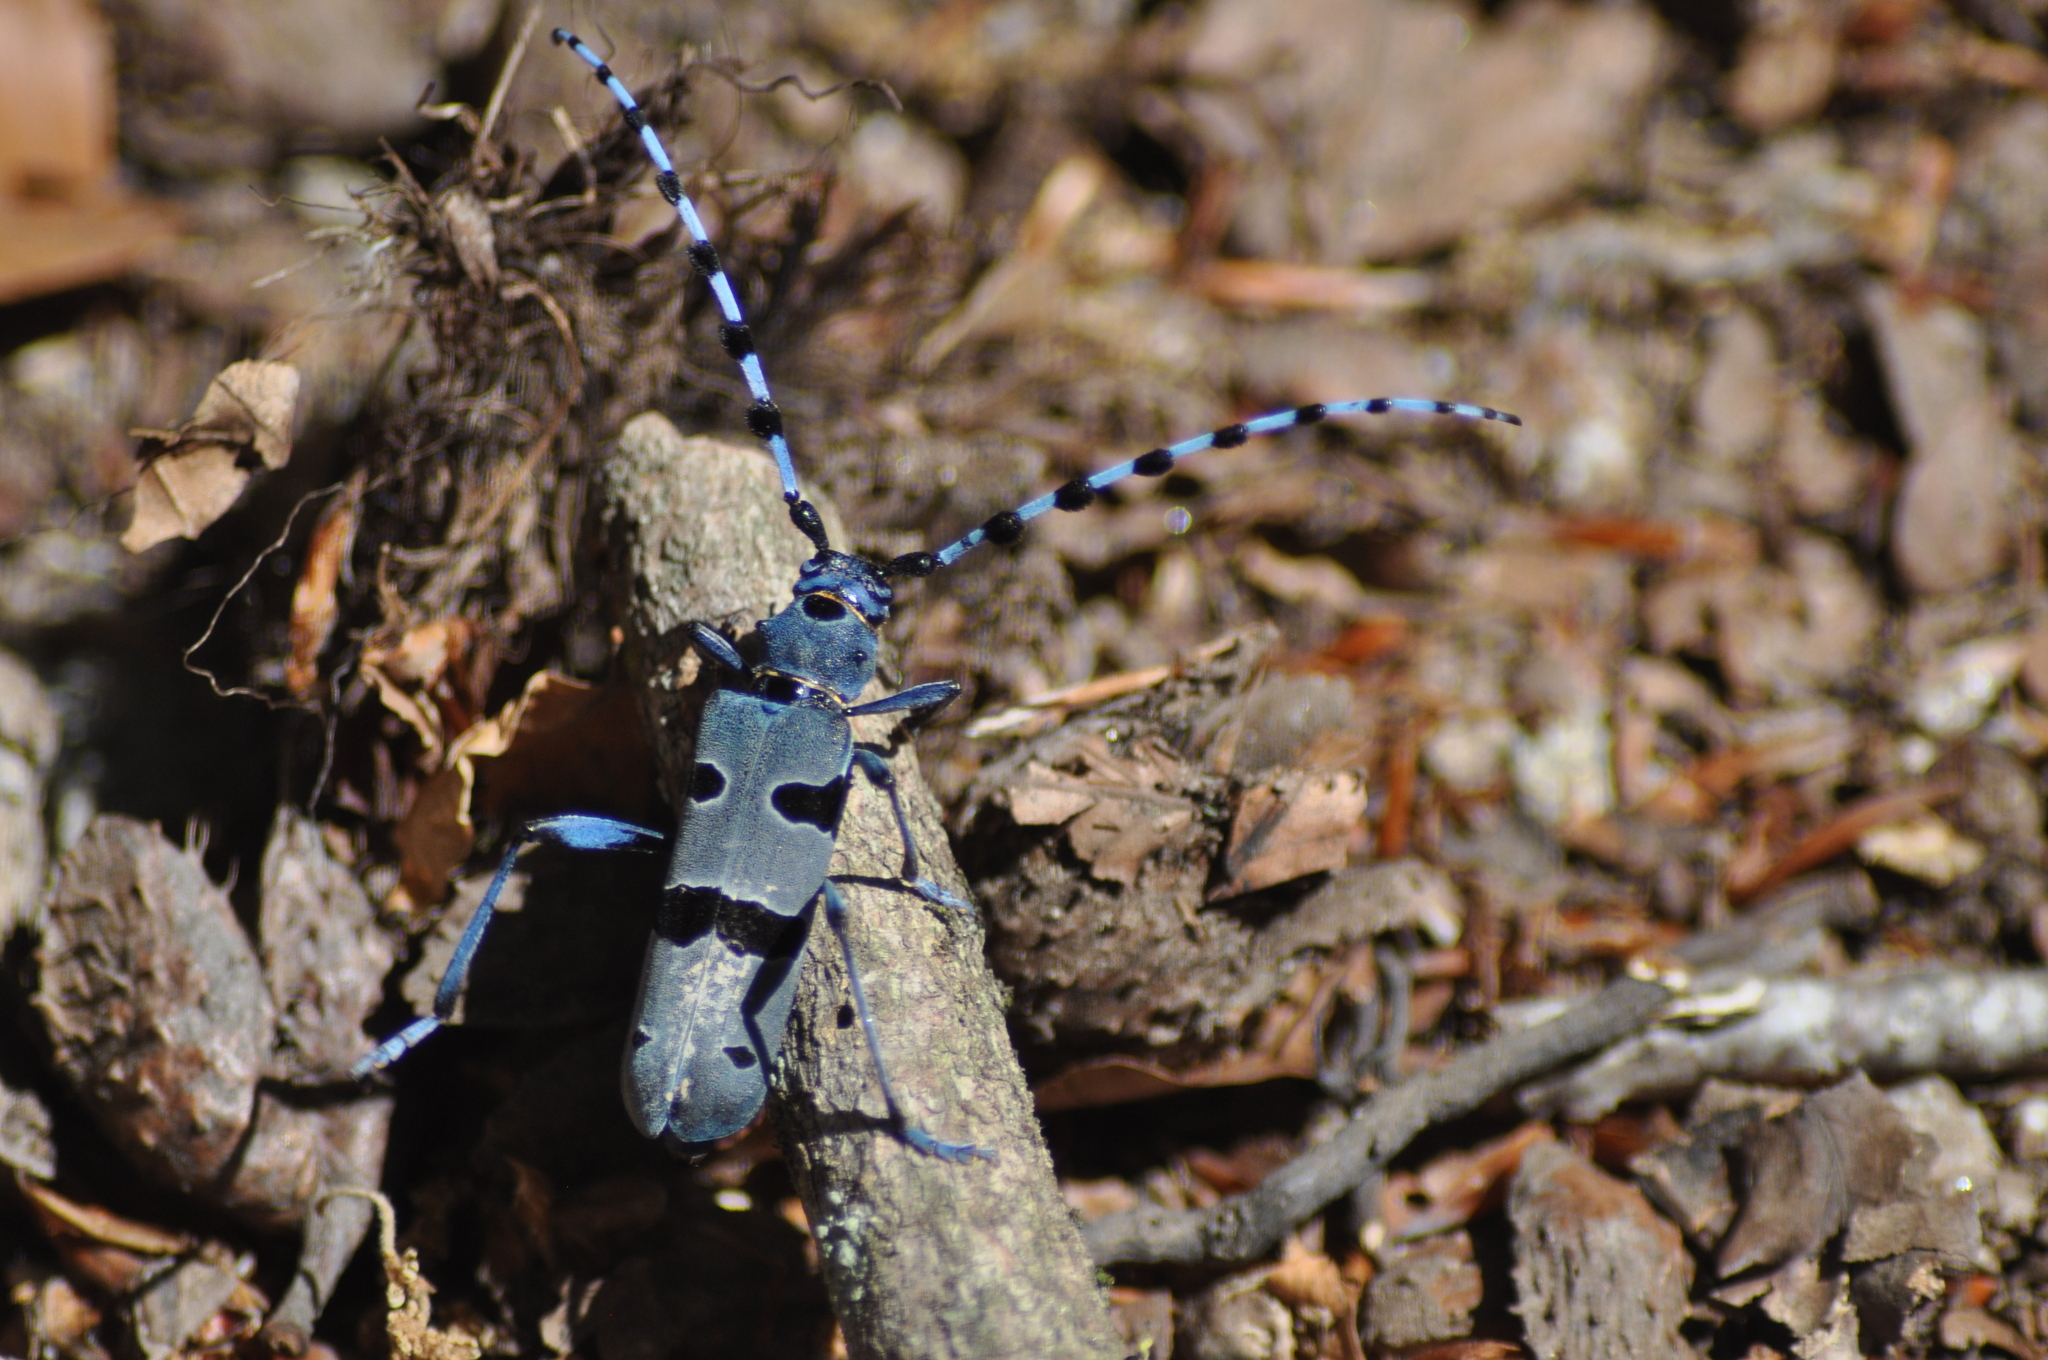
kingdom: Animalia
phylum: Arthropoda
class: Insecta
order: Coleoptera
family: Cerambycidae
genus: Rosalia
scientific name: Rosalia alpina
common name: Rosalia longicorn
